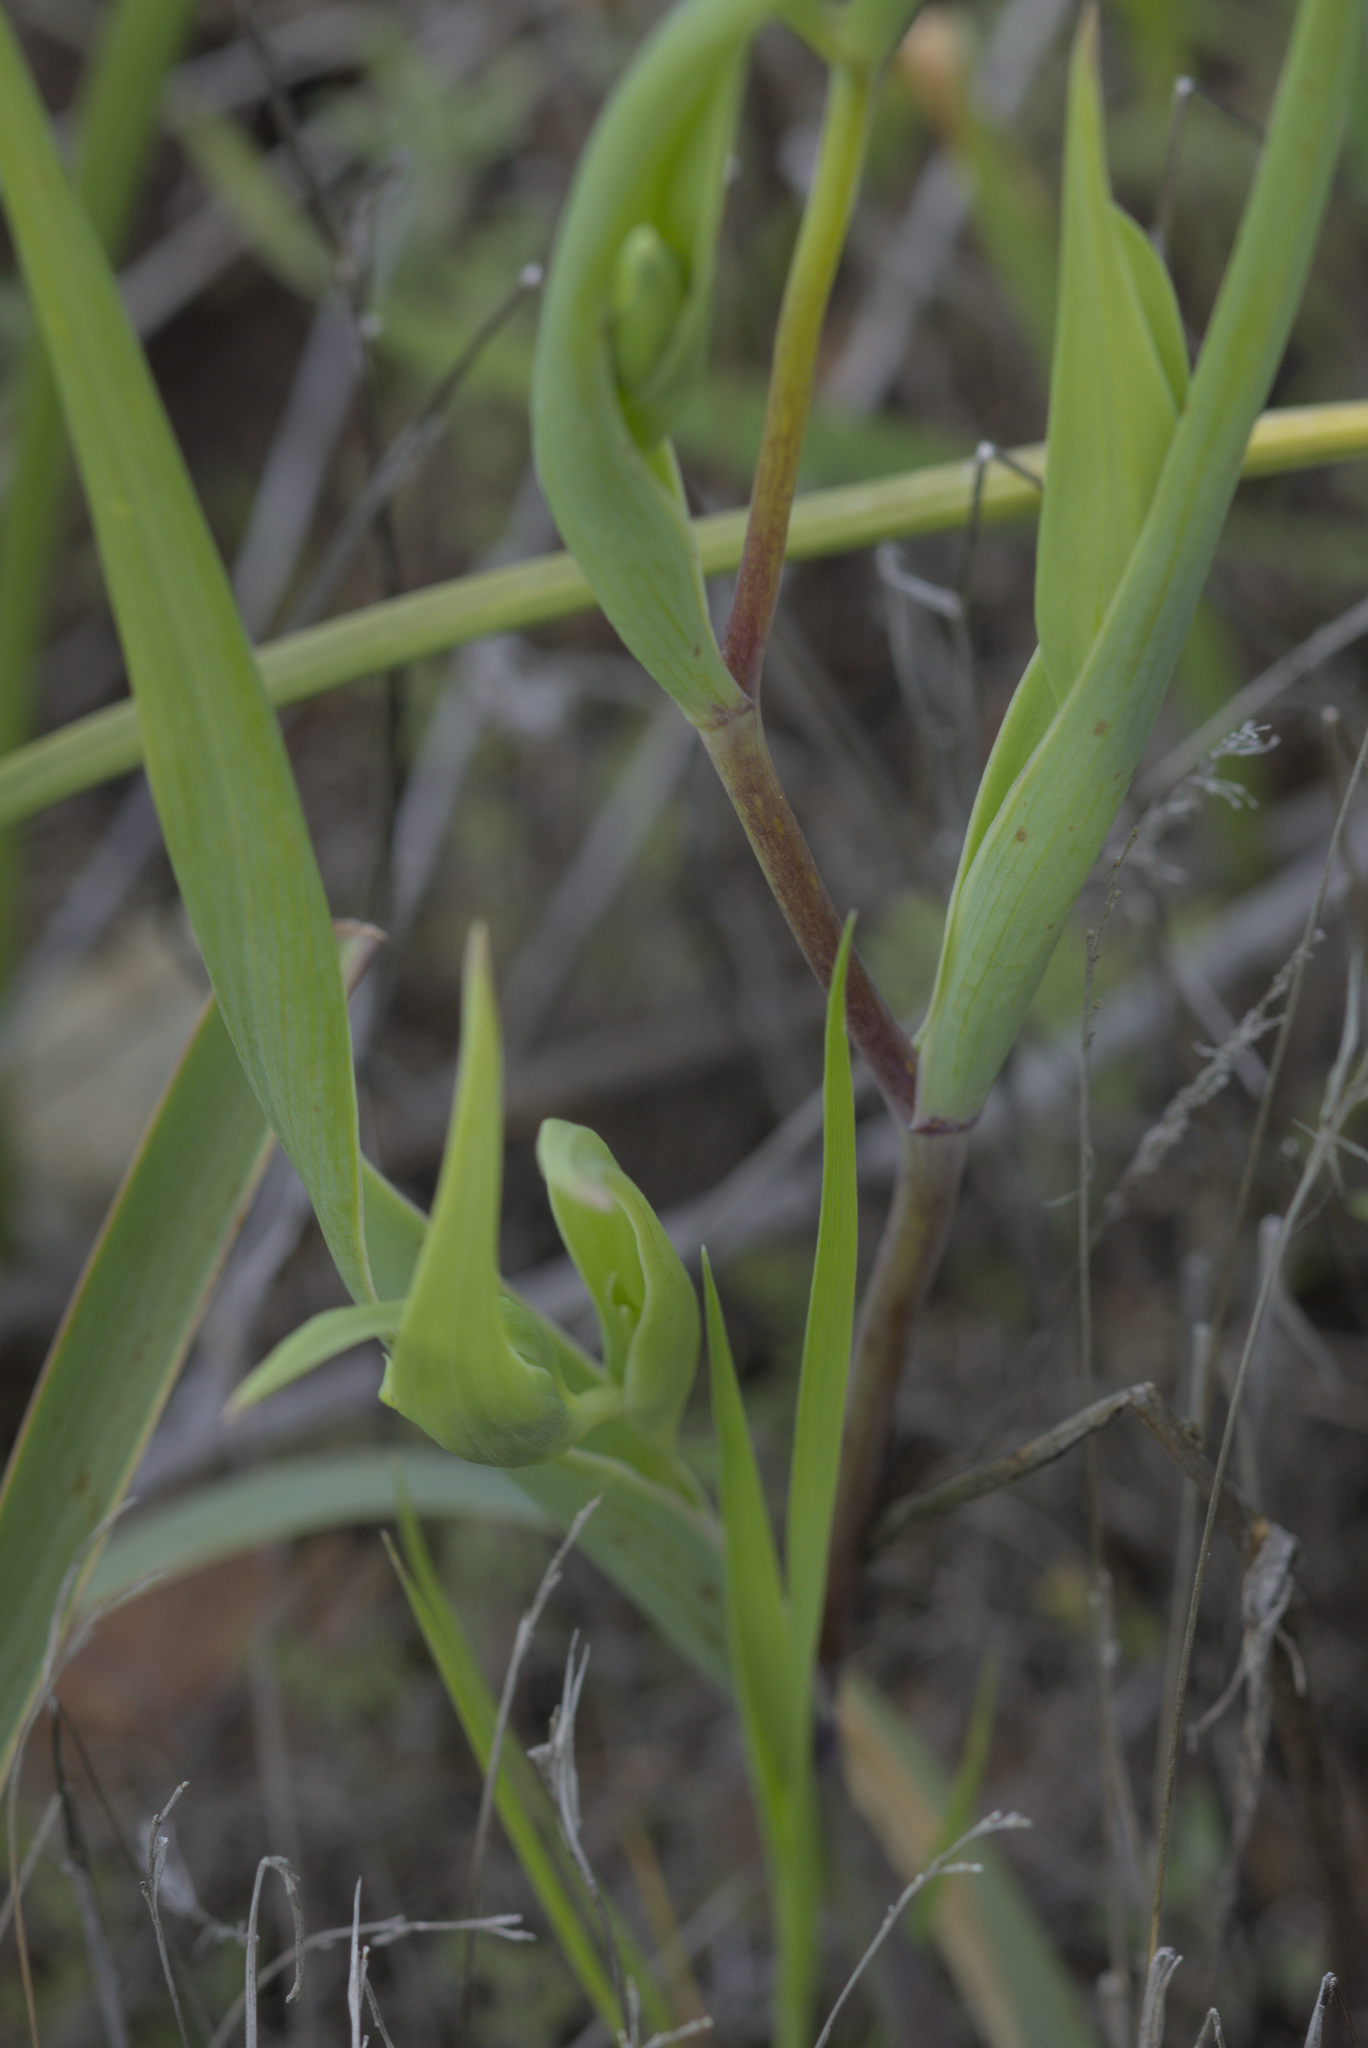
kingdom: Plantae
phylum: Tracheophyta
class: Liliopsida
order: Liliales
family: Liliaceae
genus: Calochortus
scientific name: Calochortus amabilis
